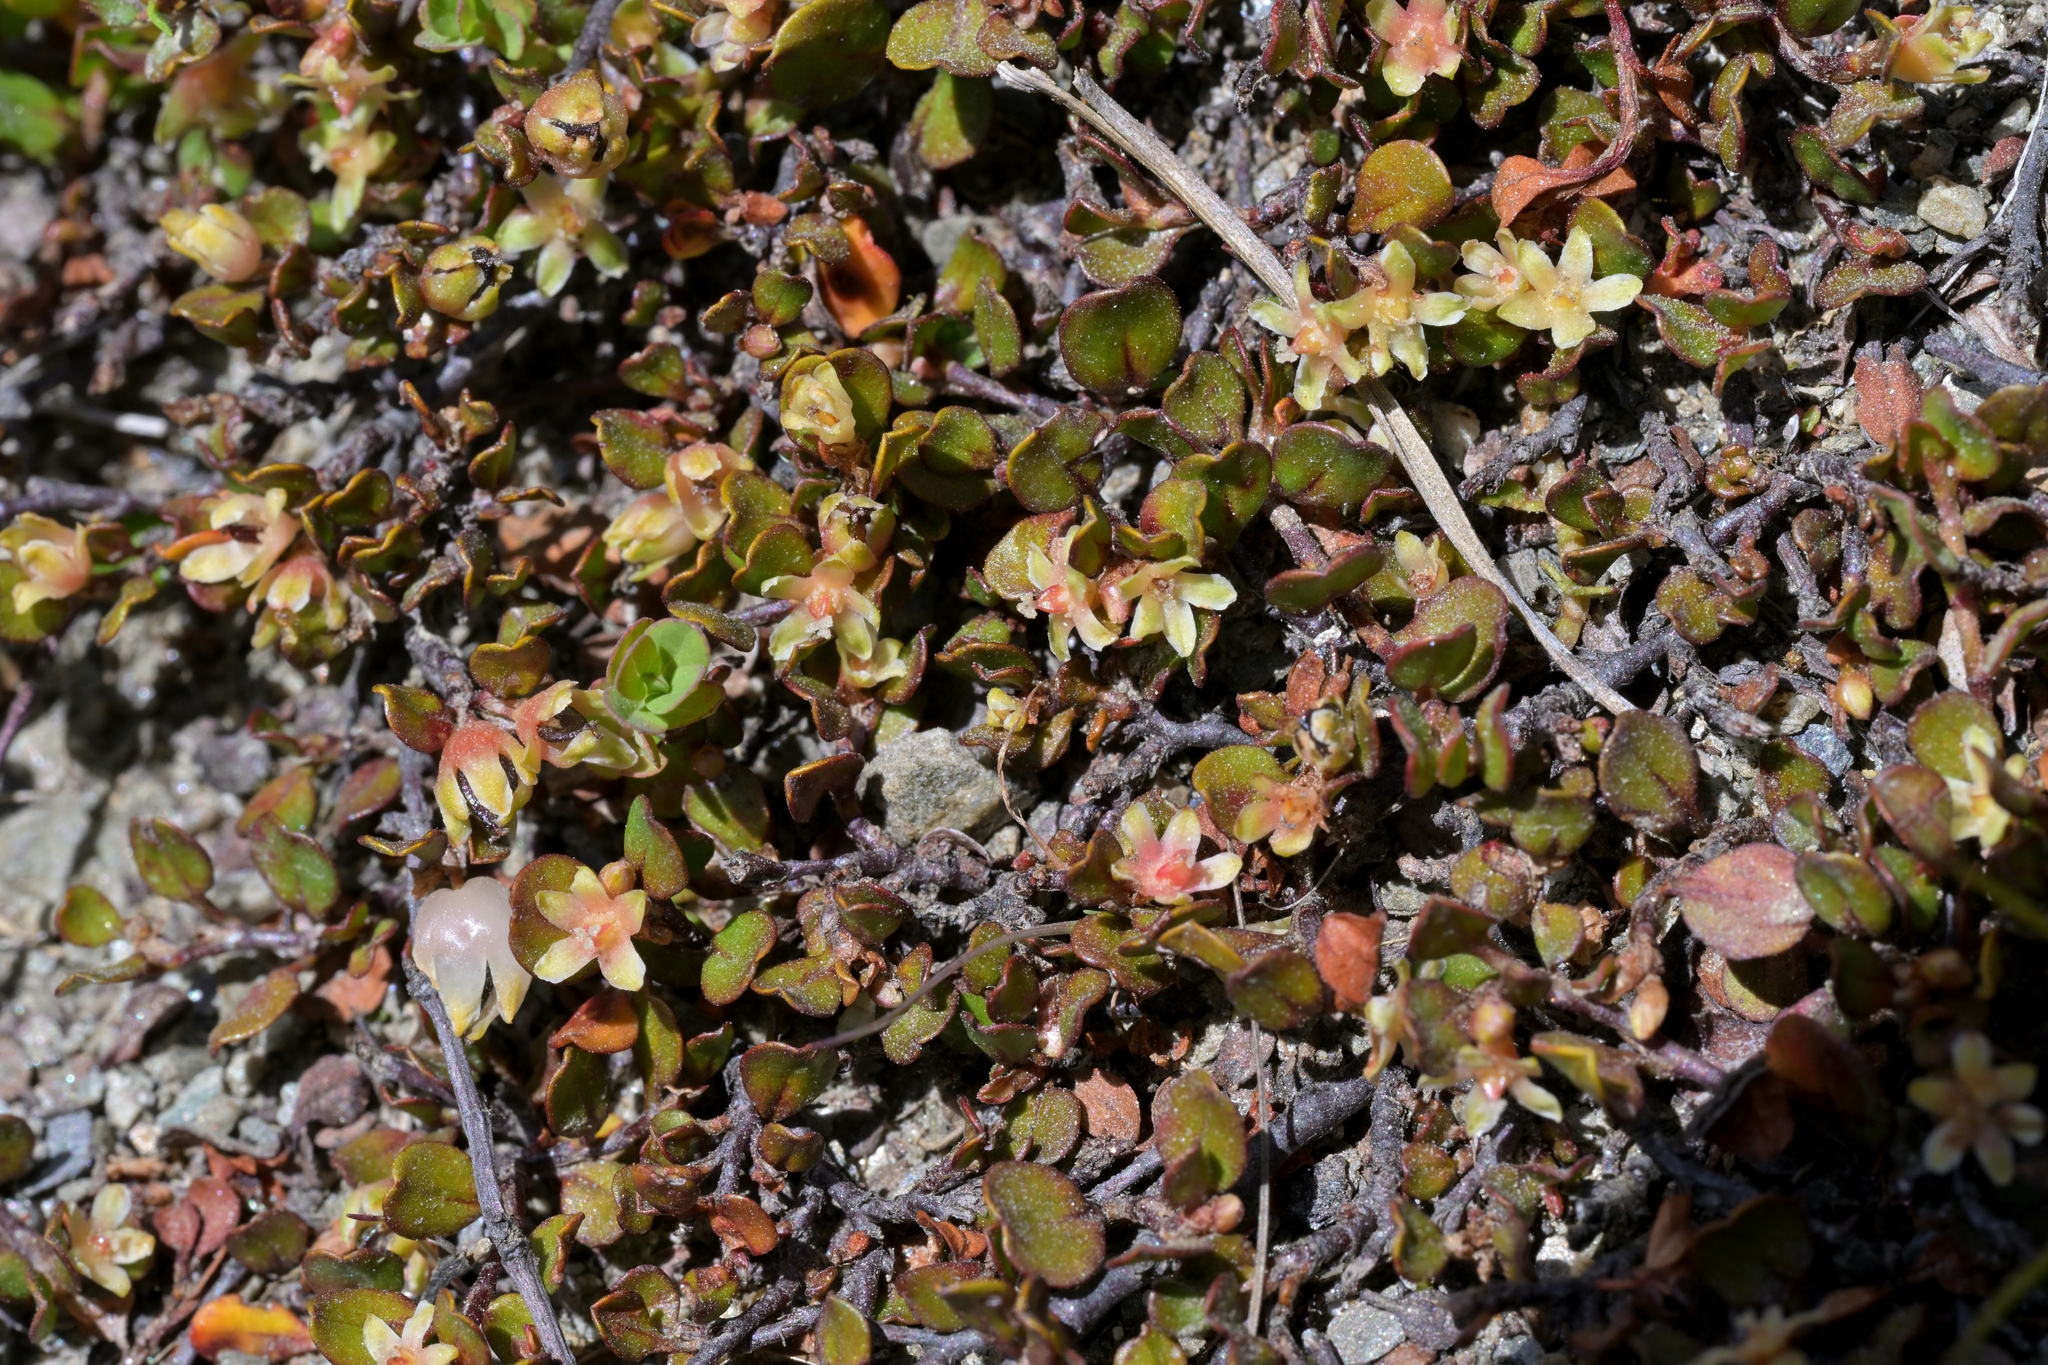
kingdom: Plantae
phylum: Tracheophyta
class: Magnoliopsida
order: Caryophyllales
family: Polygonaceae
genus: Muehlenbeckia
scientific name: Muehlenbeckia axillaris
